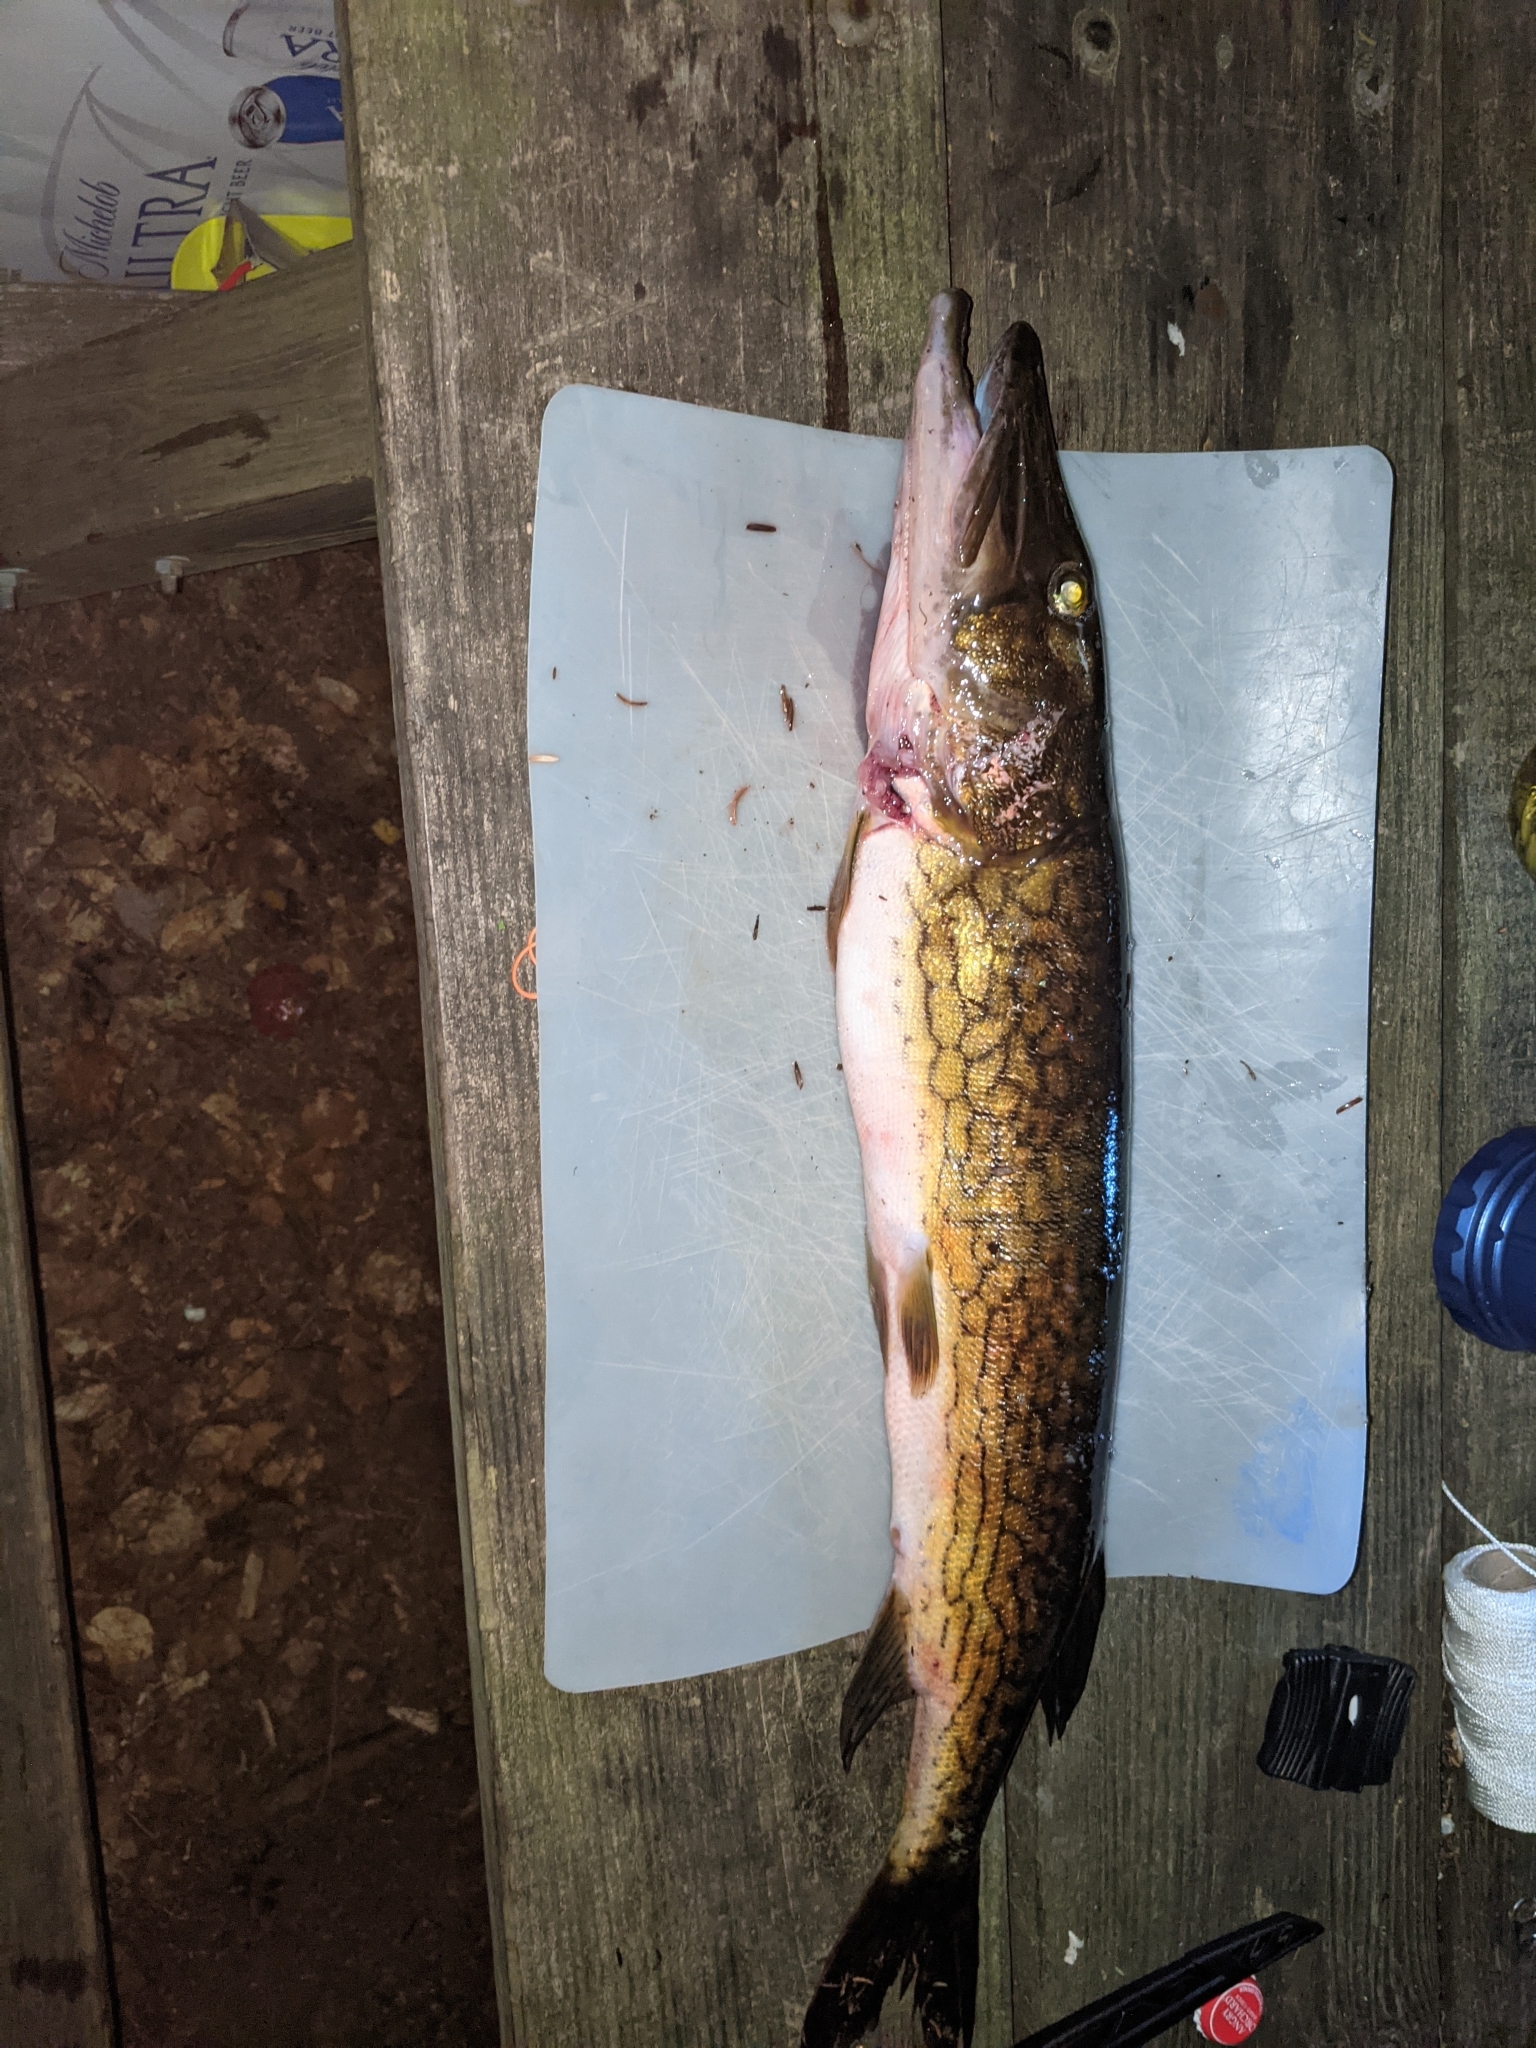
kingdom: Animalia
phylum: Chordata
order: Esociformes
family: Esocidae
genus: Esox
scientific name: Esox niger
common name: Chain pickerel
